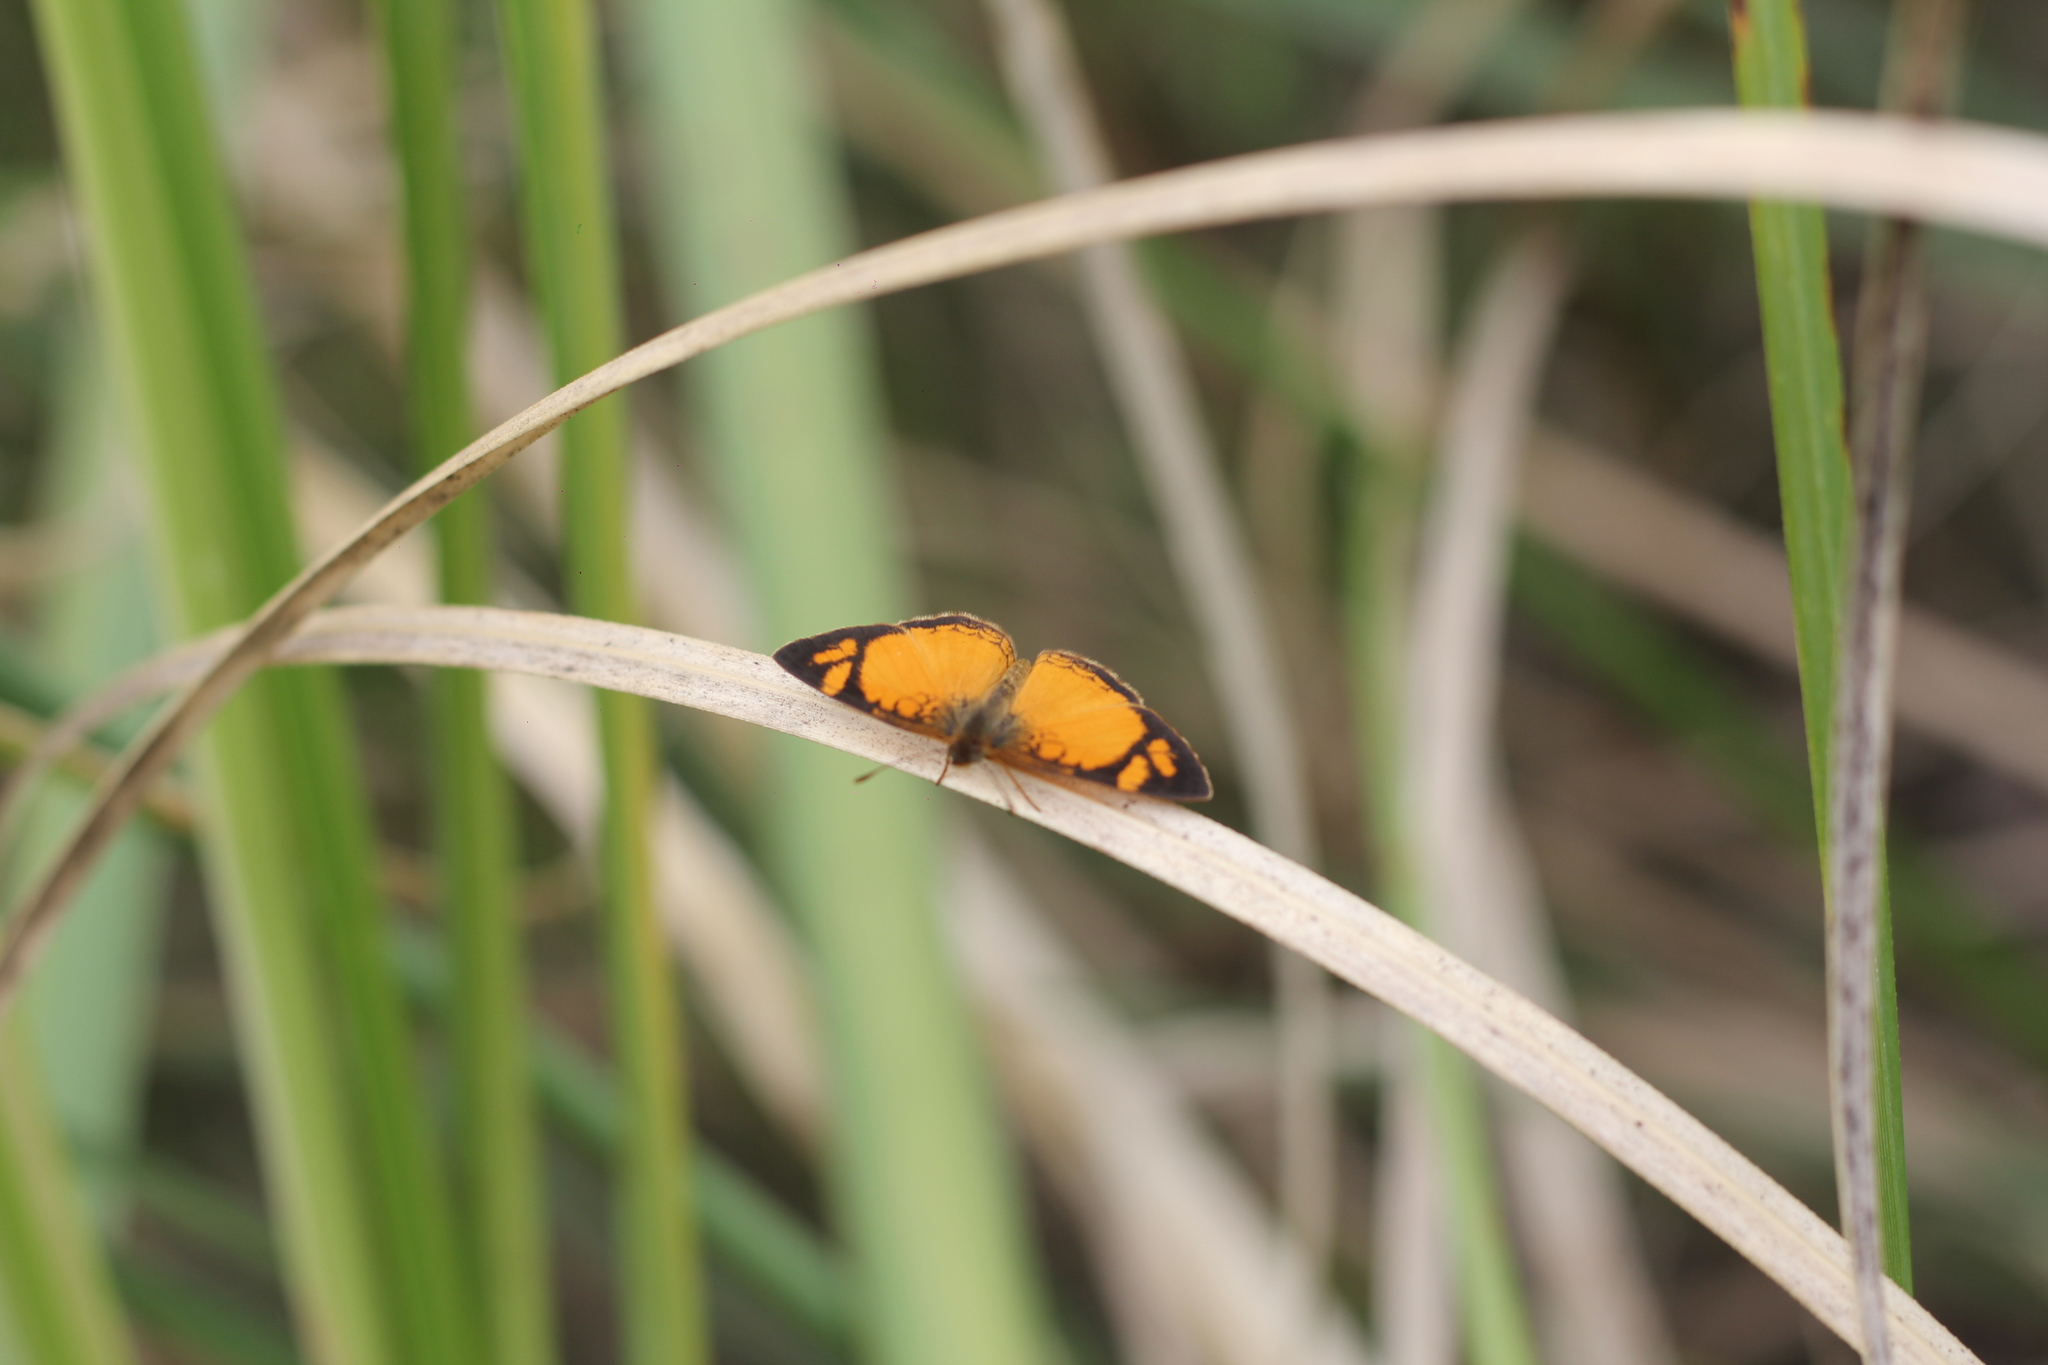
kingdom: Animalia
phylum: Arthropoda
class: Insecta
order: Lepidoptera
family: Nymphalidae
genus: Tegosa
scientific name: Tegosa claudina
